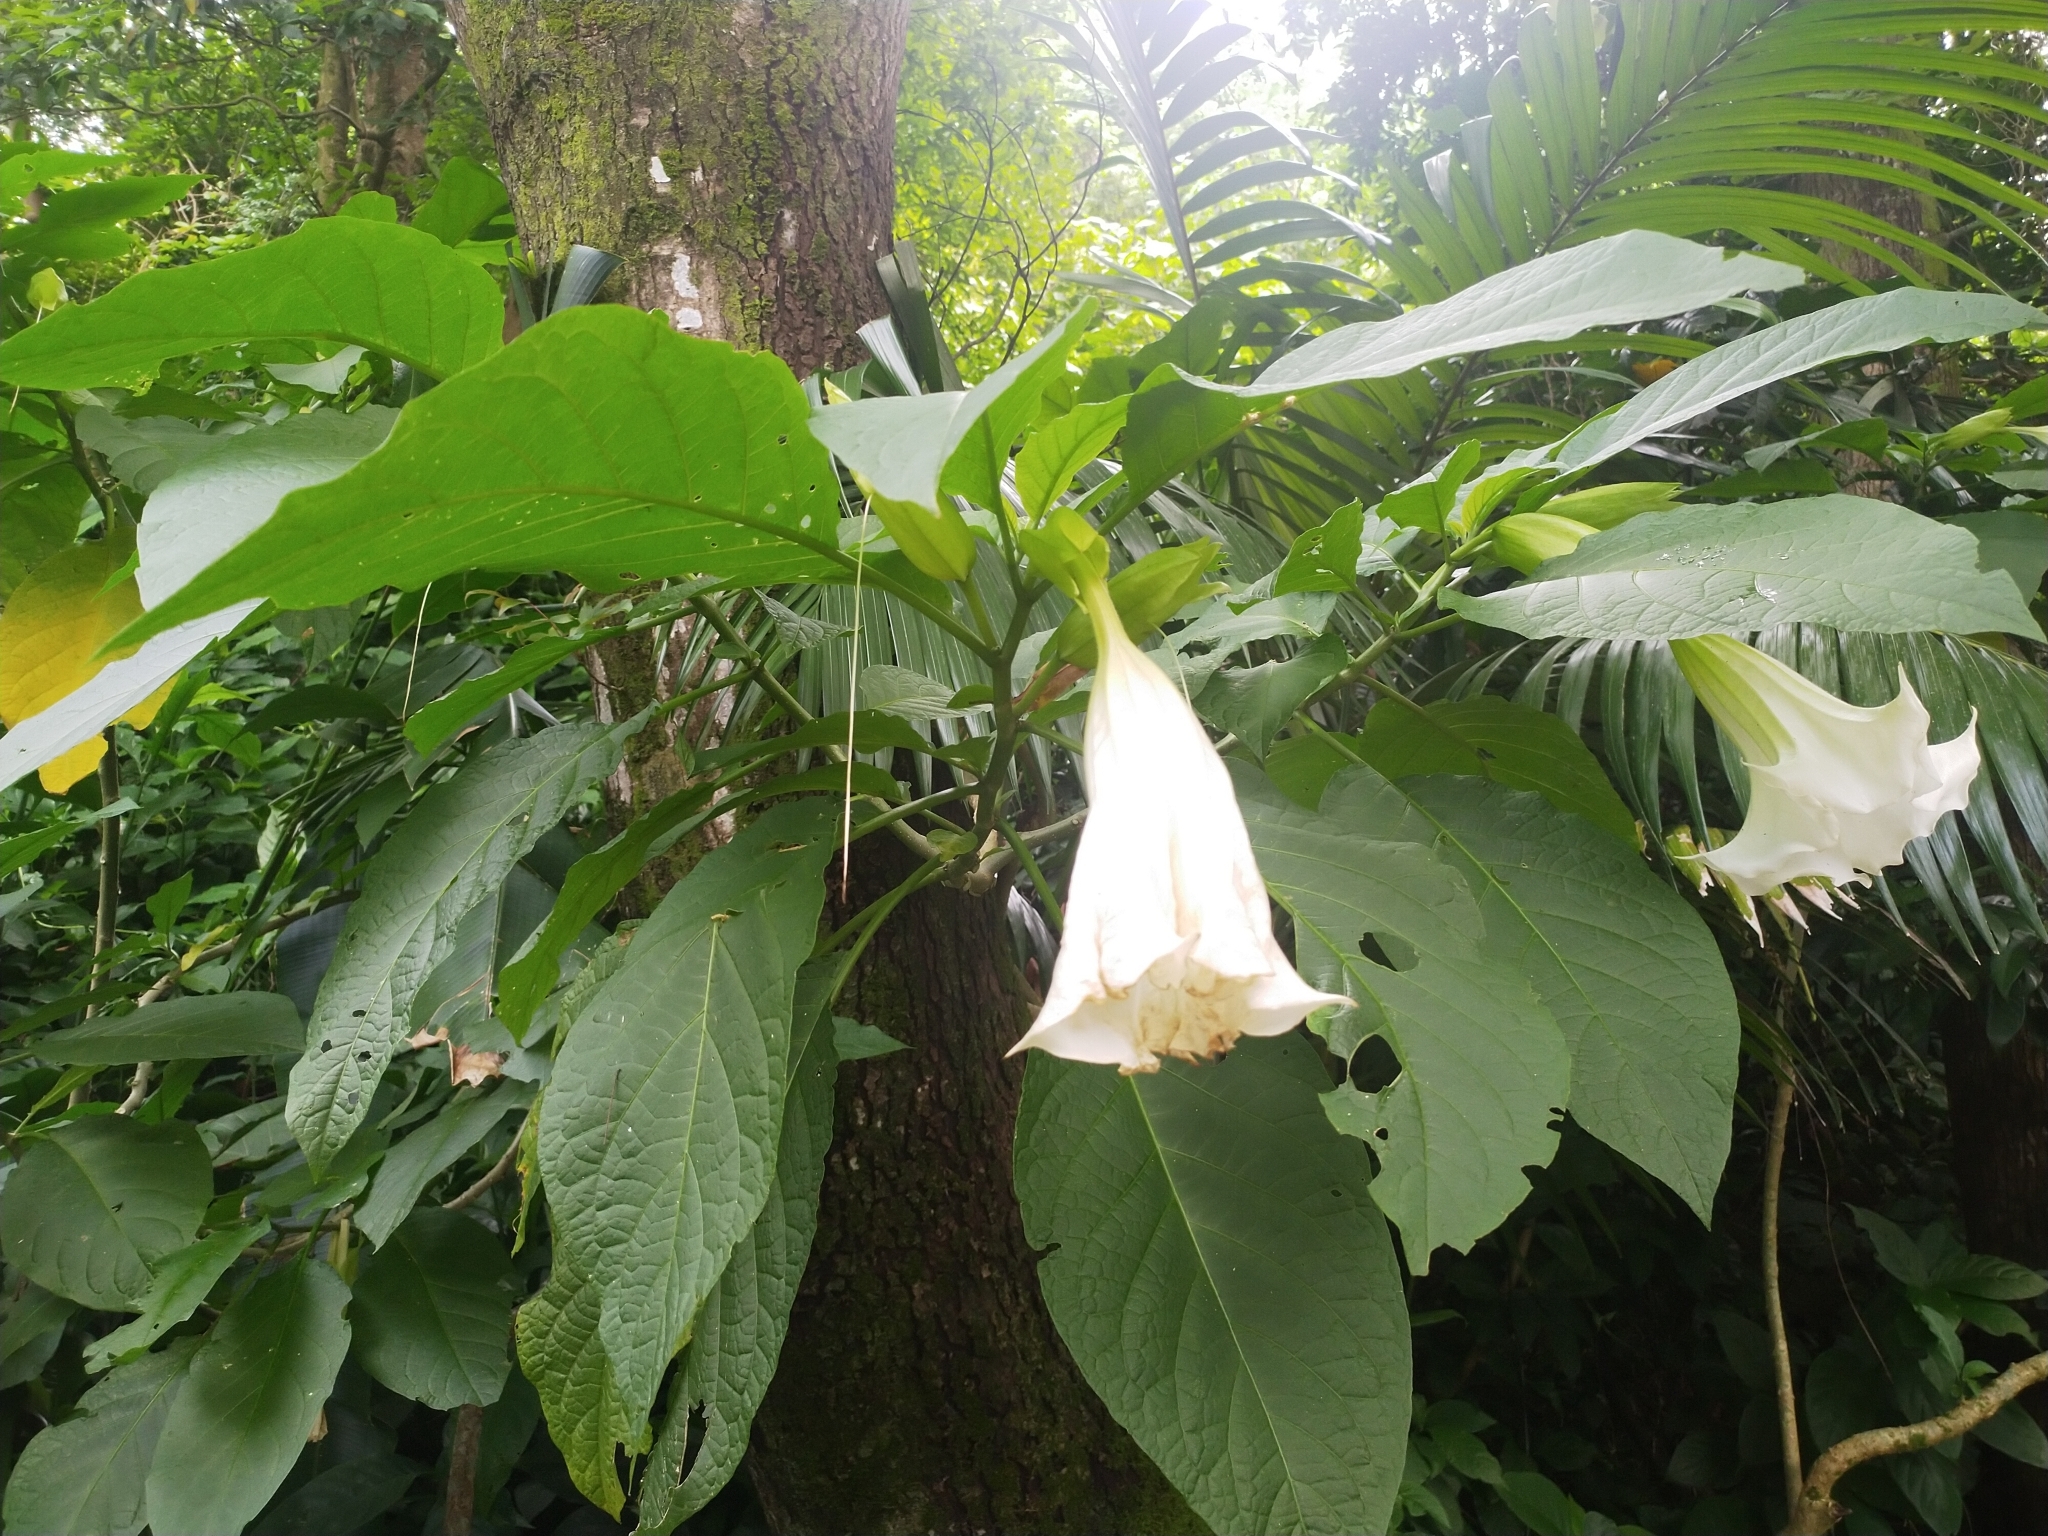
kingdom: Plantae
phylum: Tracheophyta
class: Magnoliopsida
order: Solanales
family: Solanaceae
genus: Brugmansia
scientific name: Brugmansia suaveolens
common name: Angel's tears
